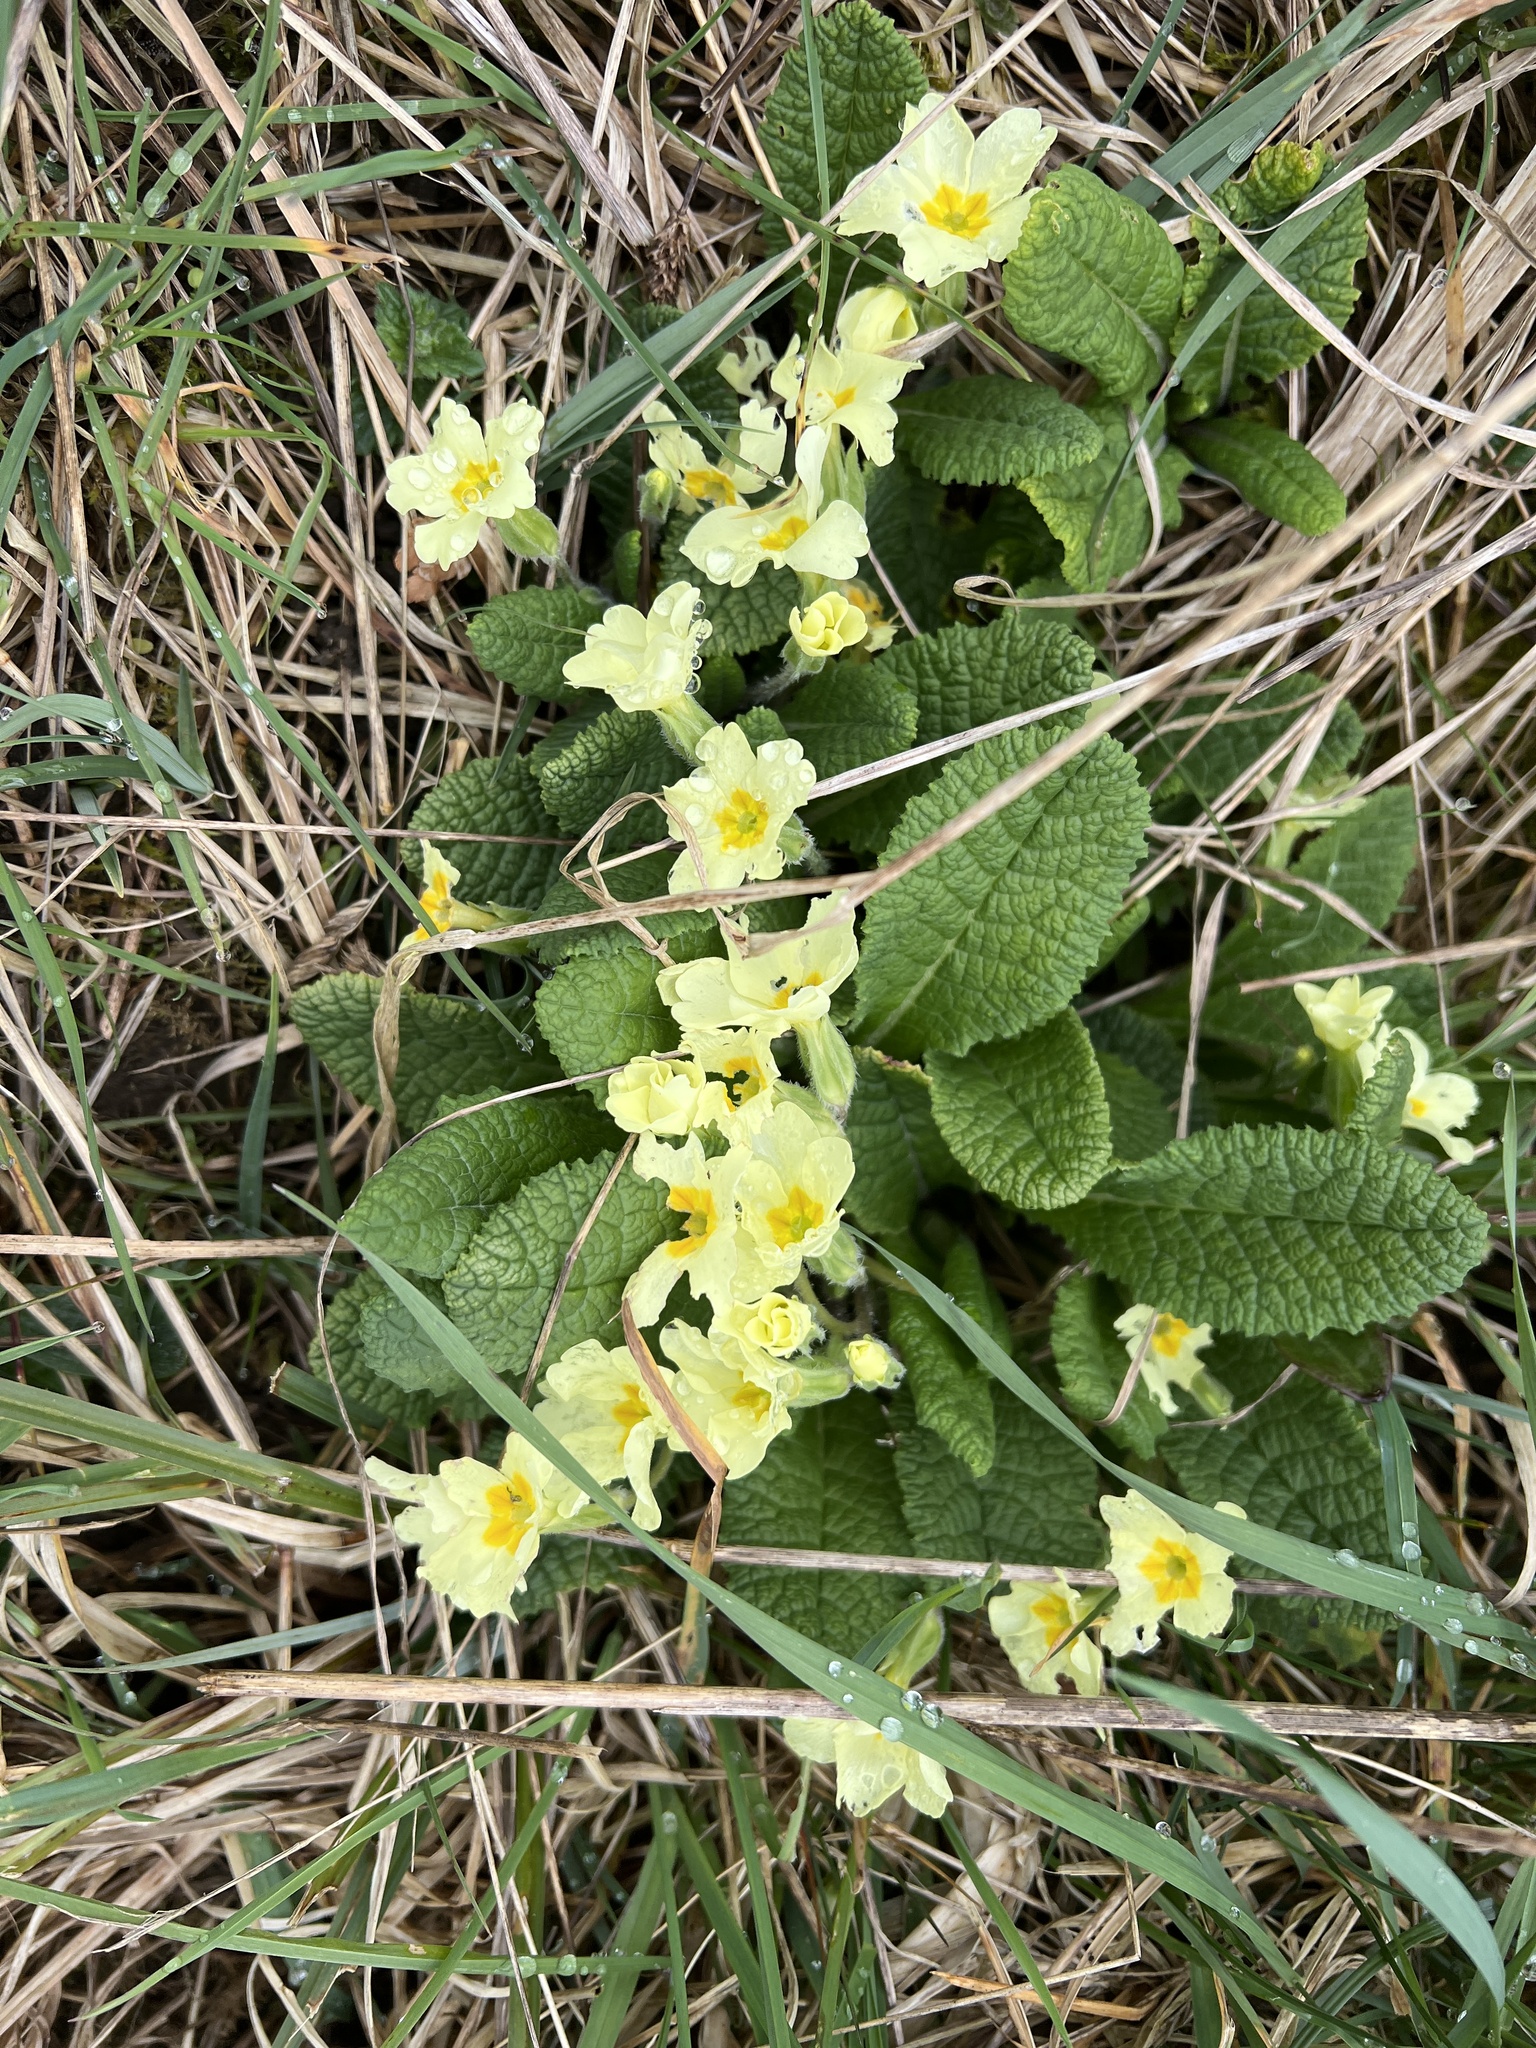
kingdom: Plantae
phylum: Tracheophyta
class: Magnoliopsida
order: Ericales
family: Primulaceae
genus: Primula
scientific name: Primula vulgaris
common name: Primrose
